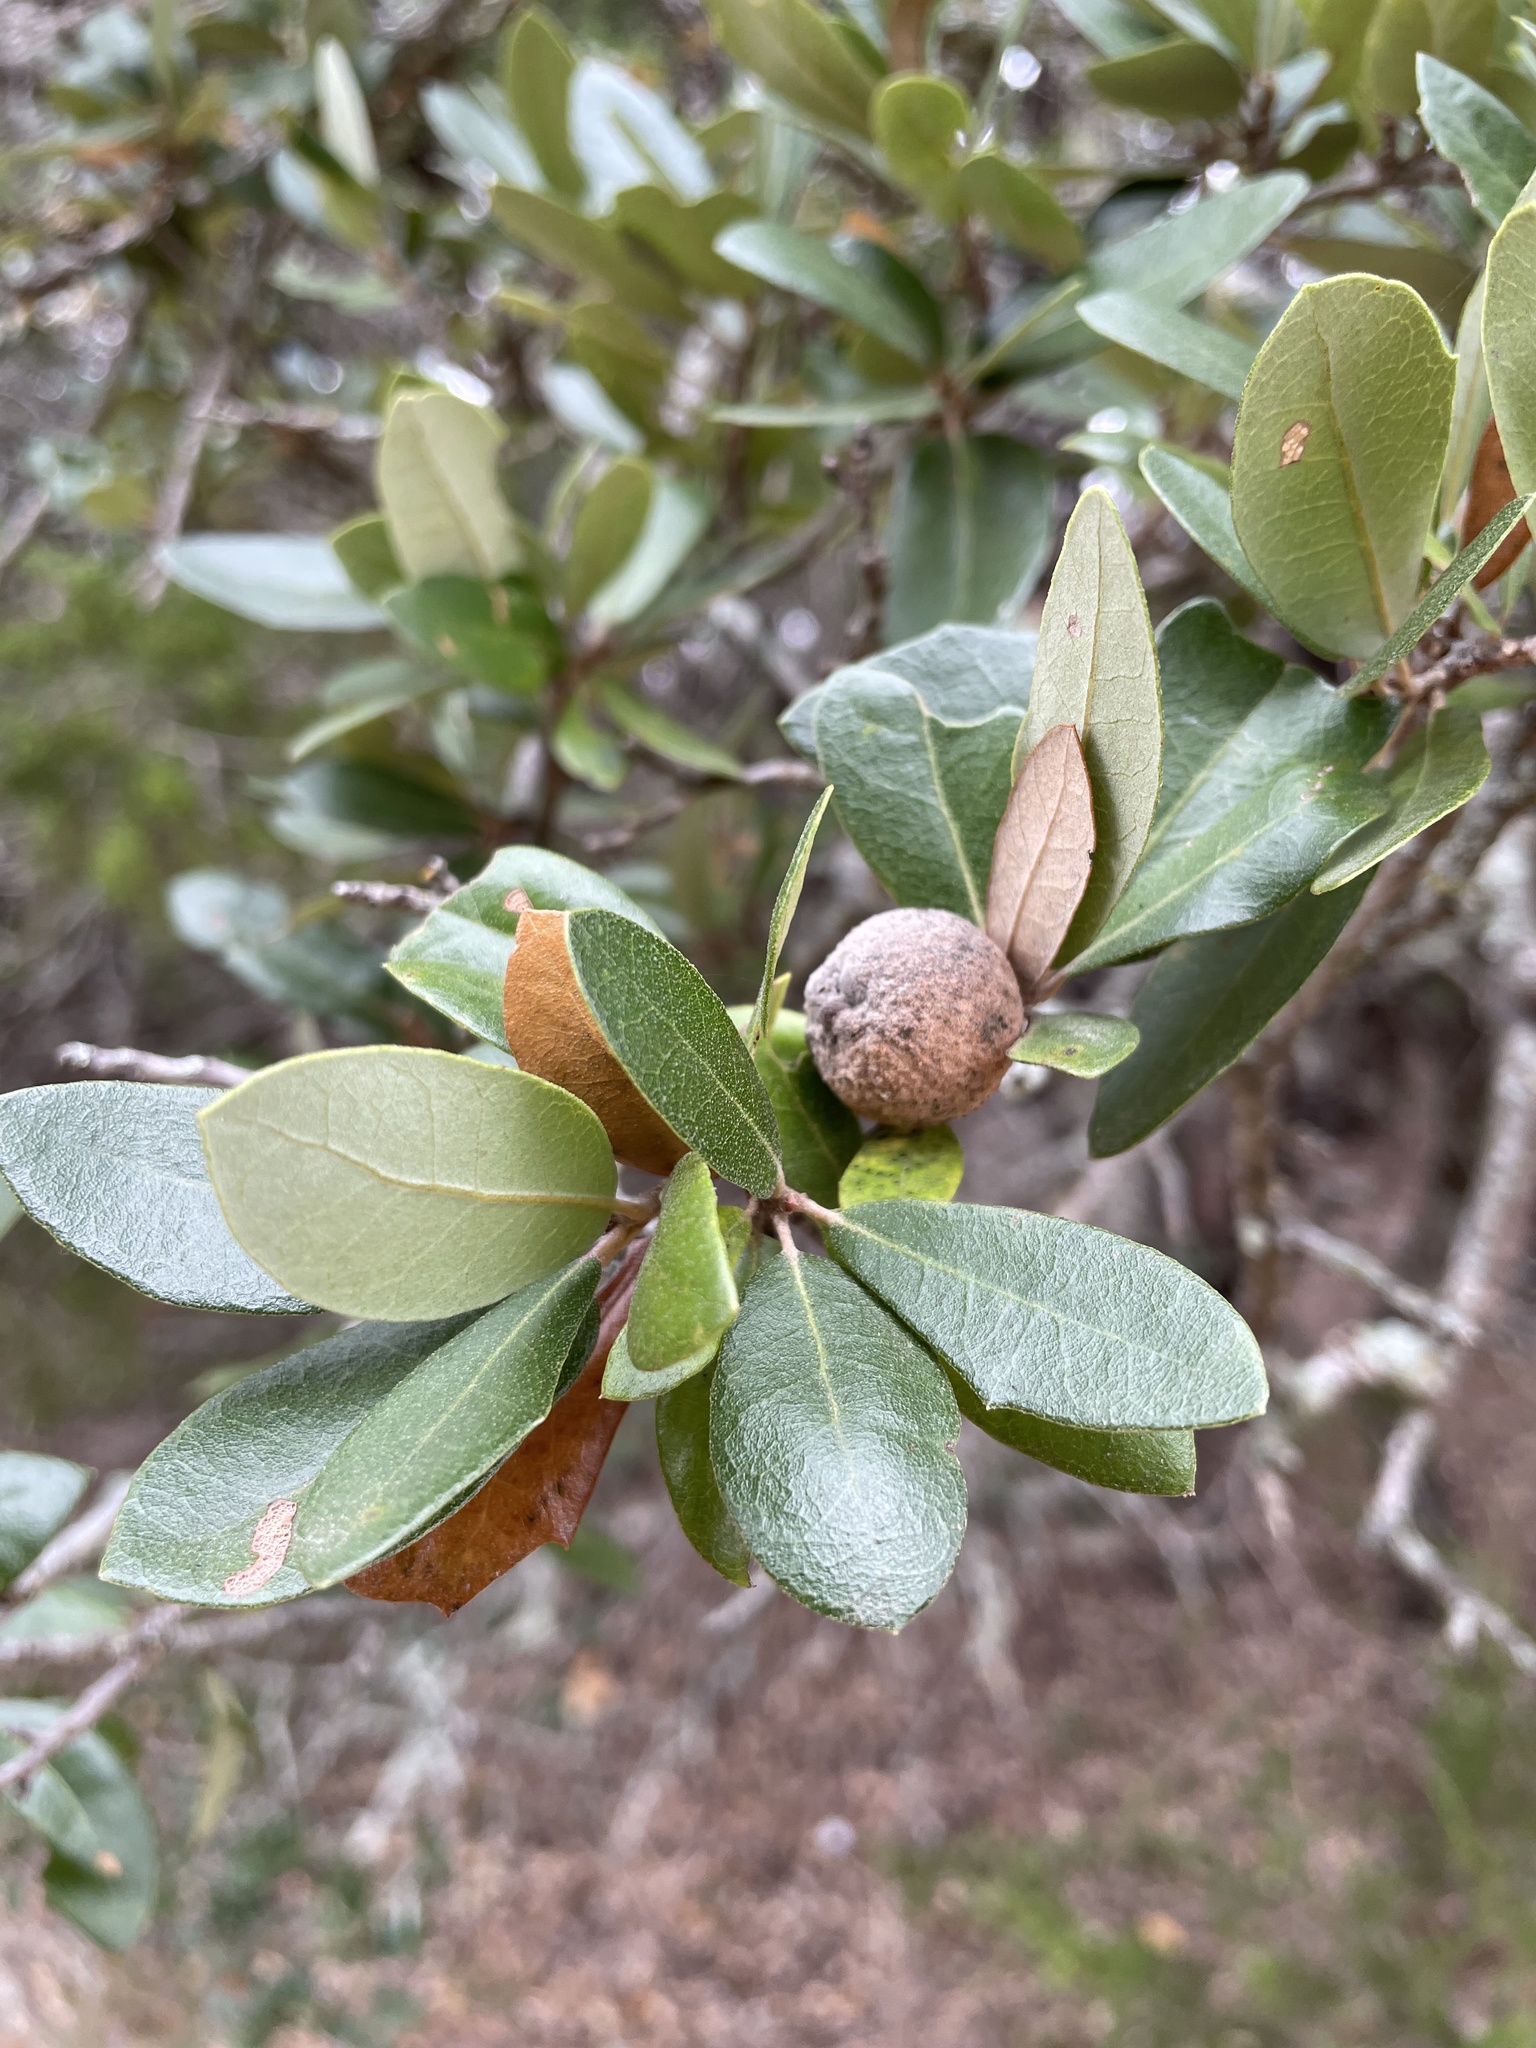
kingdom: Animalia
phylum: Arthropoda
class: Insecta
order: Hymenoptera
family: Cynipidae
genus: Disholcaspis
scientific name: Disholcaspis
